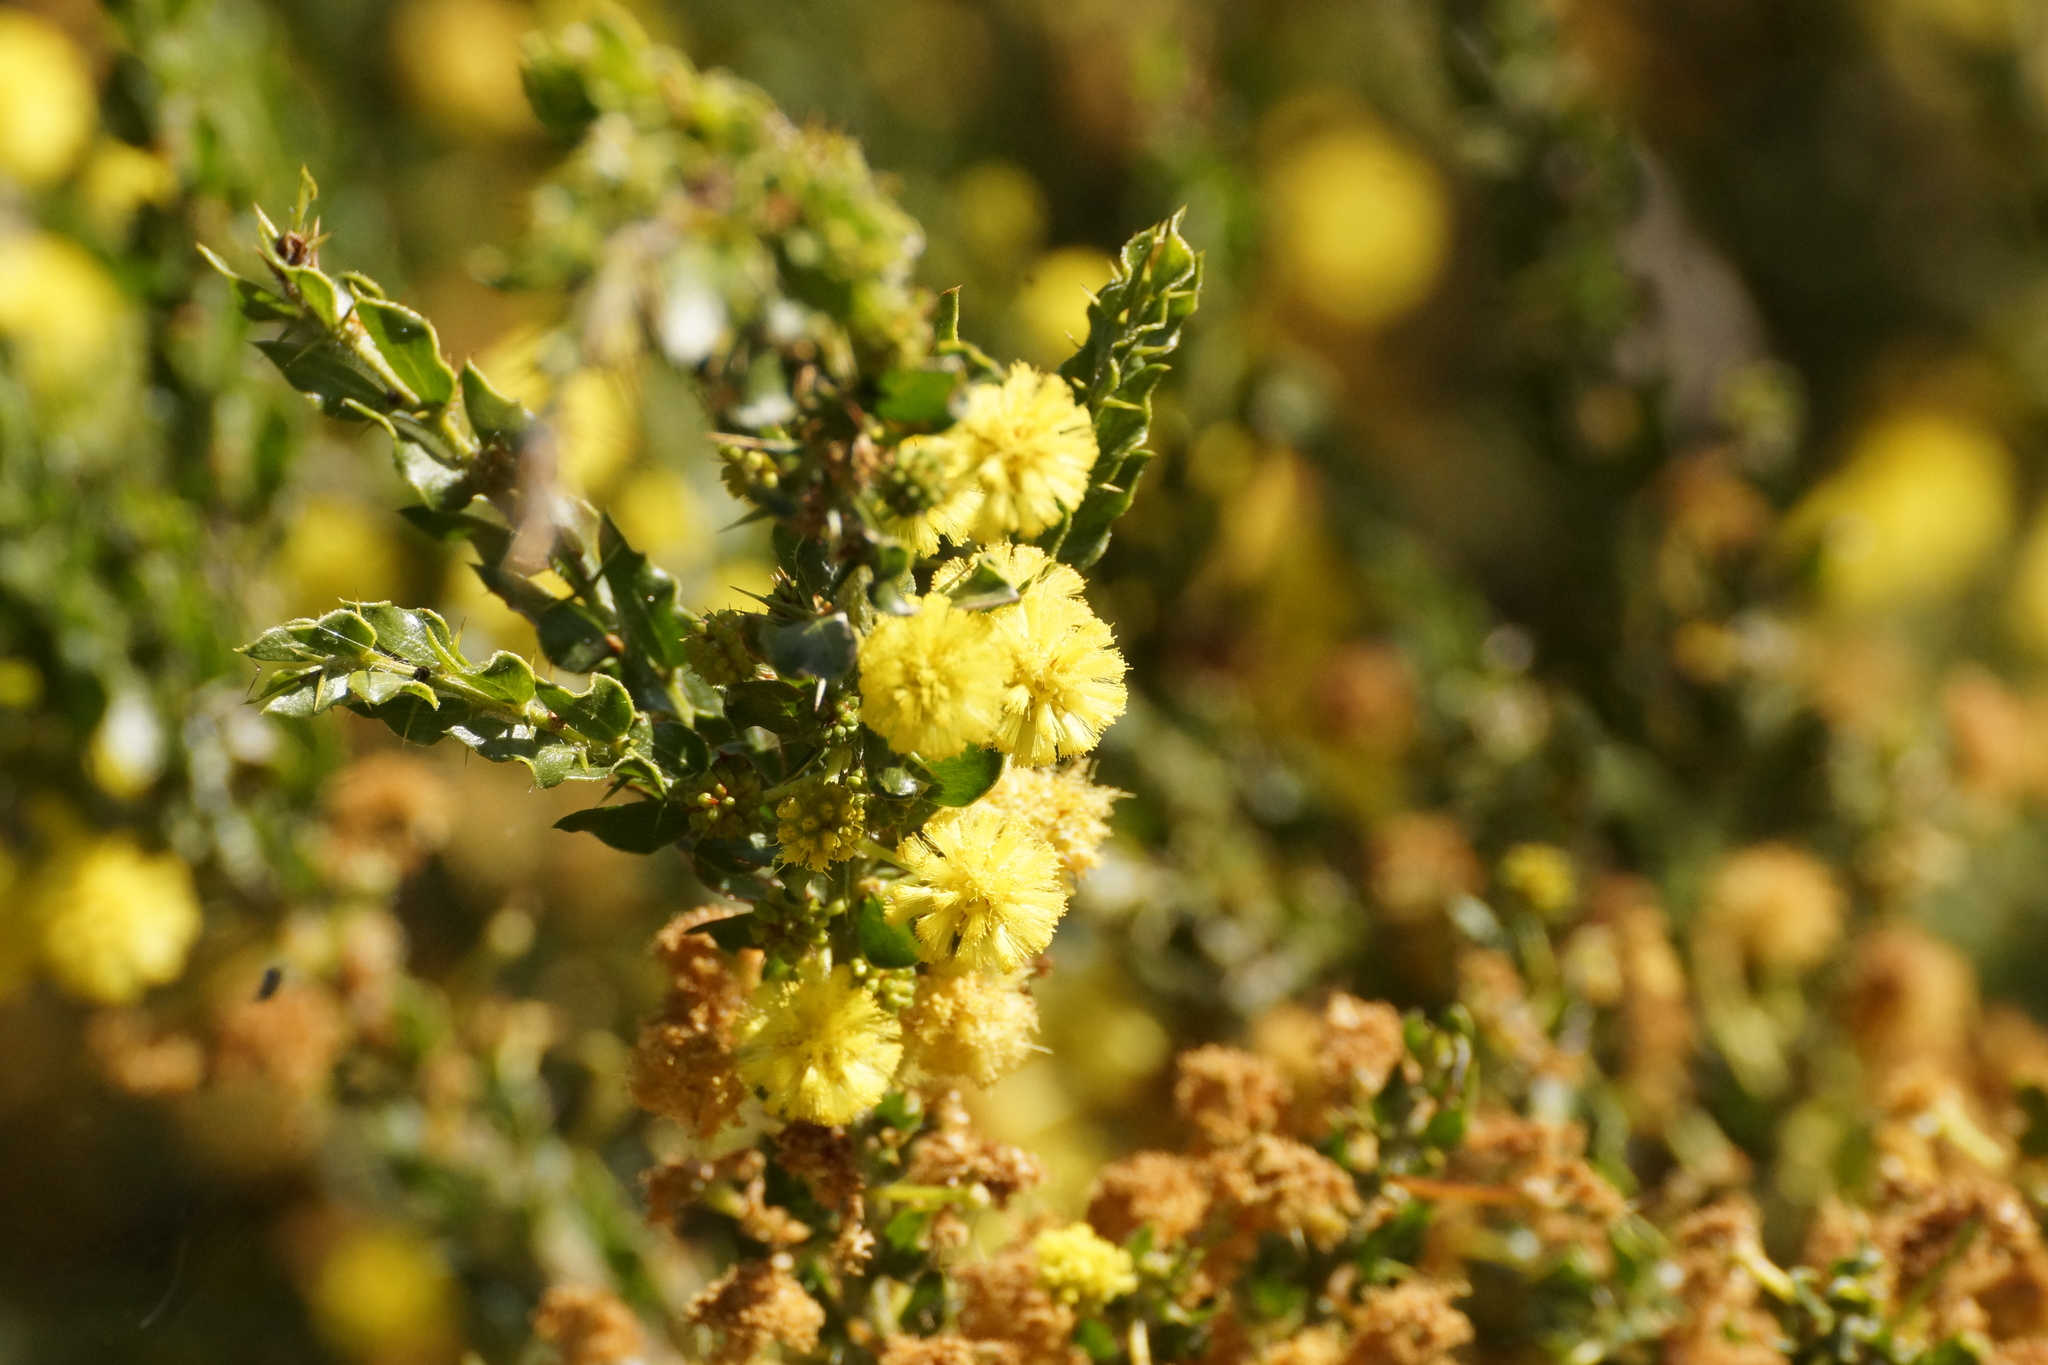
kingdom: Plantae
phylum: Tracheophyta
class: Magnoliopsida
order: Fabales
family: Fabaceae
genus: Acacia
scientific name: Acacia paradoxa
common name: Paradox acacia
